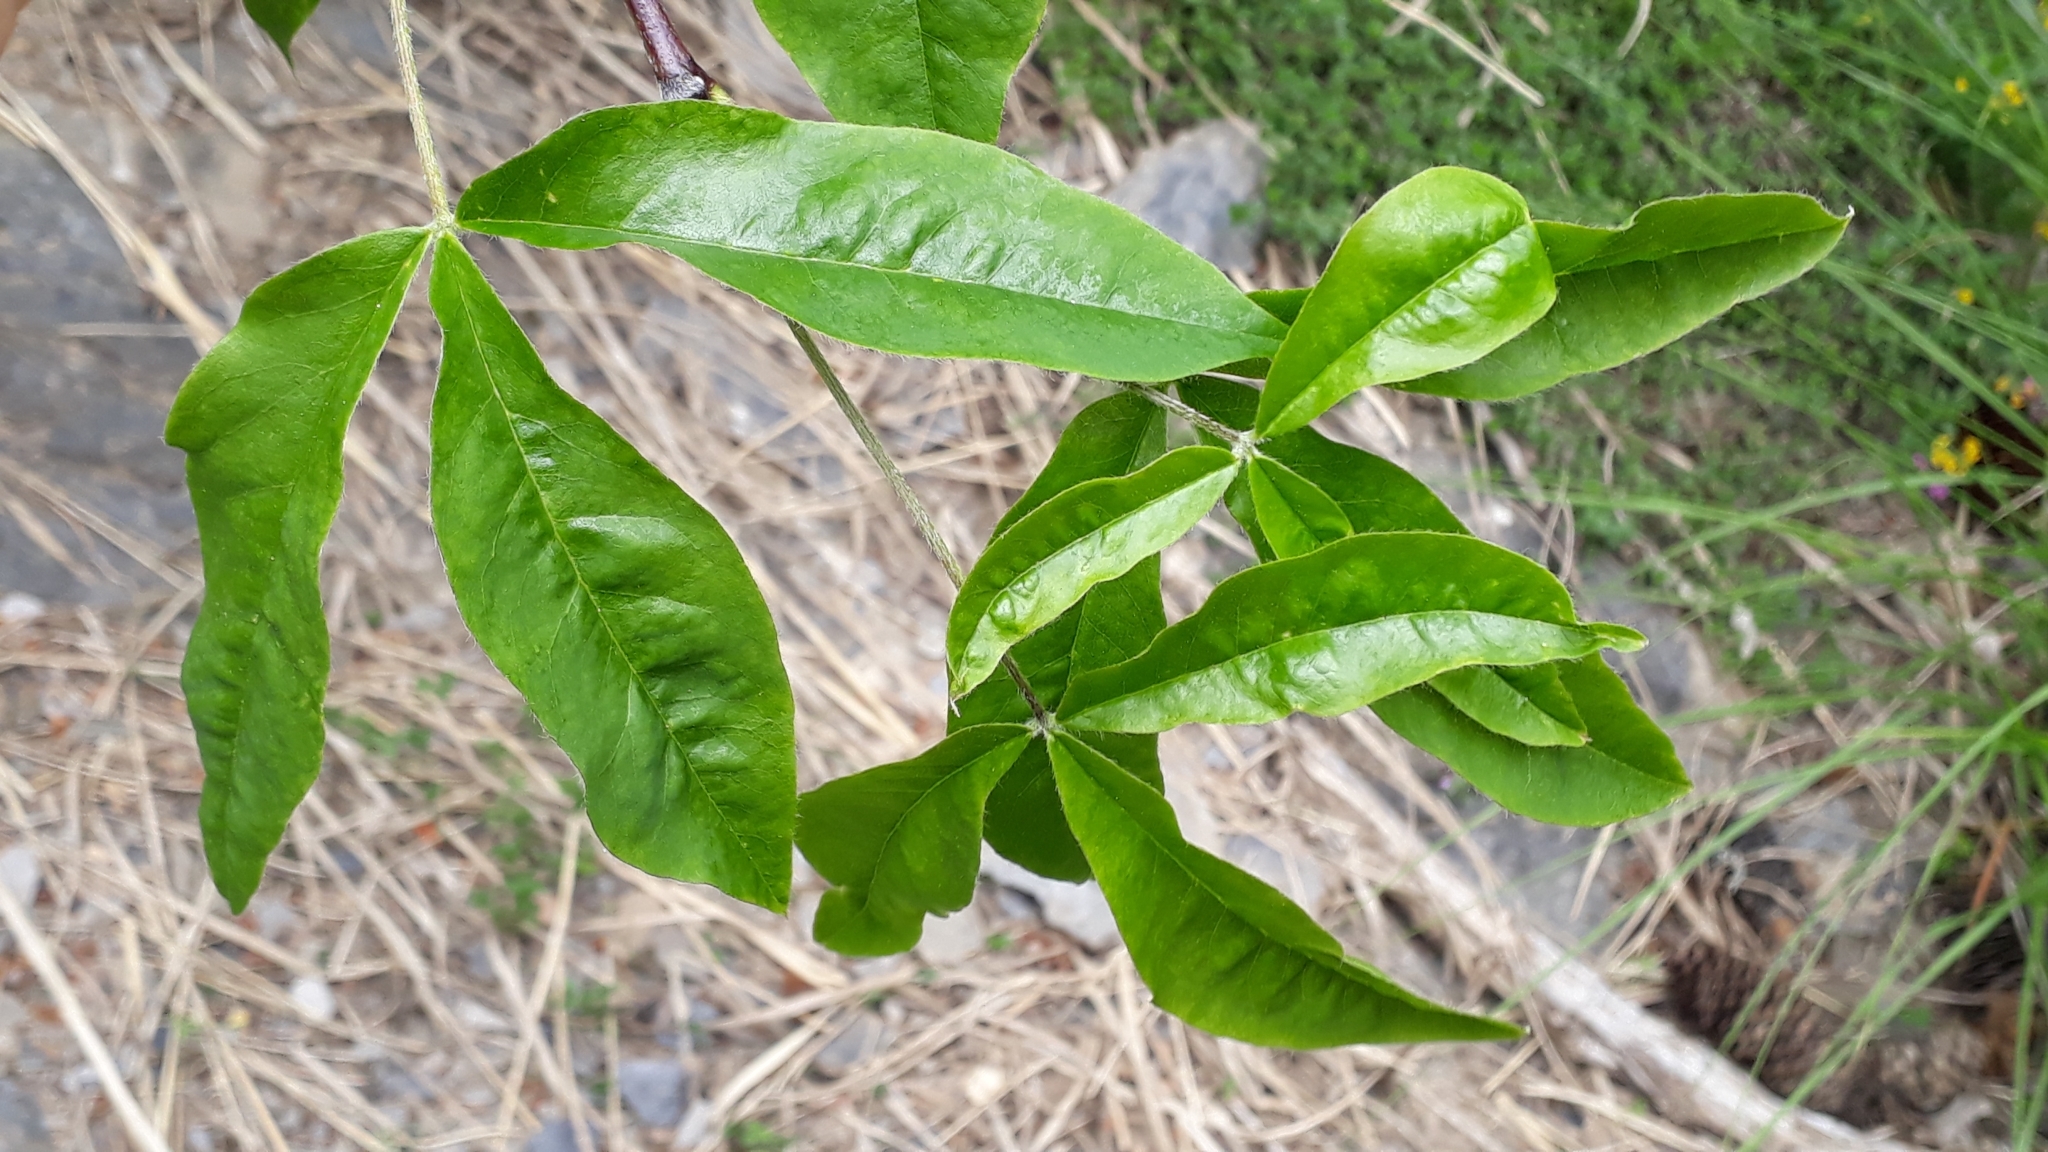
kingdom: Plantae
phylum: Tracheophyta
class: Magnoliopsida
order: Fabales
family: Fabaceae
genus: Laburnum
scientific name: Laburnum alpinum
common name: Scottish laburnum
